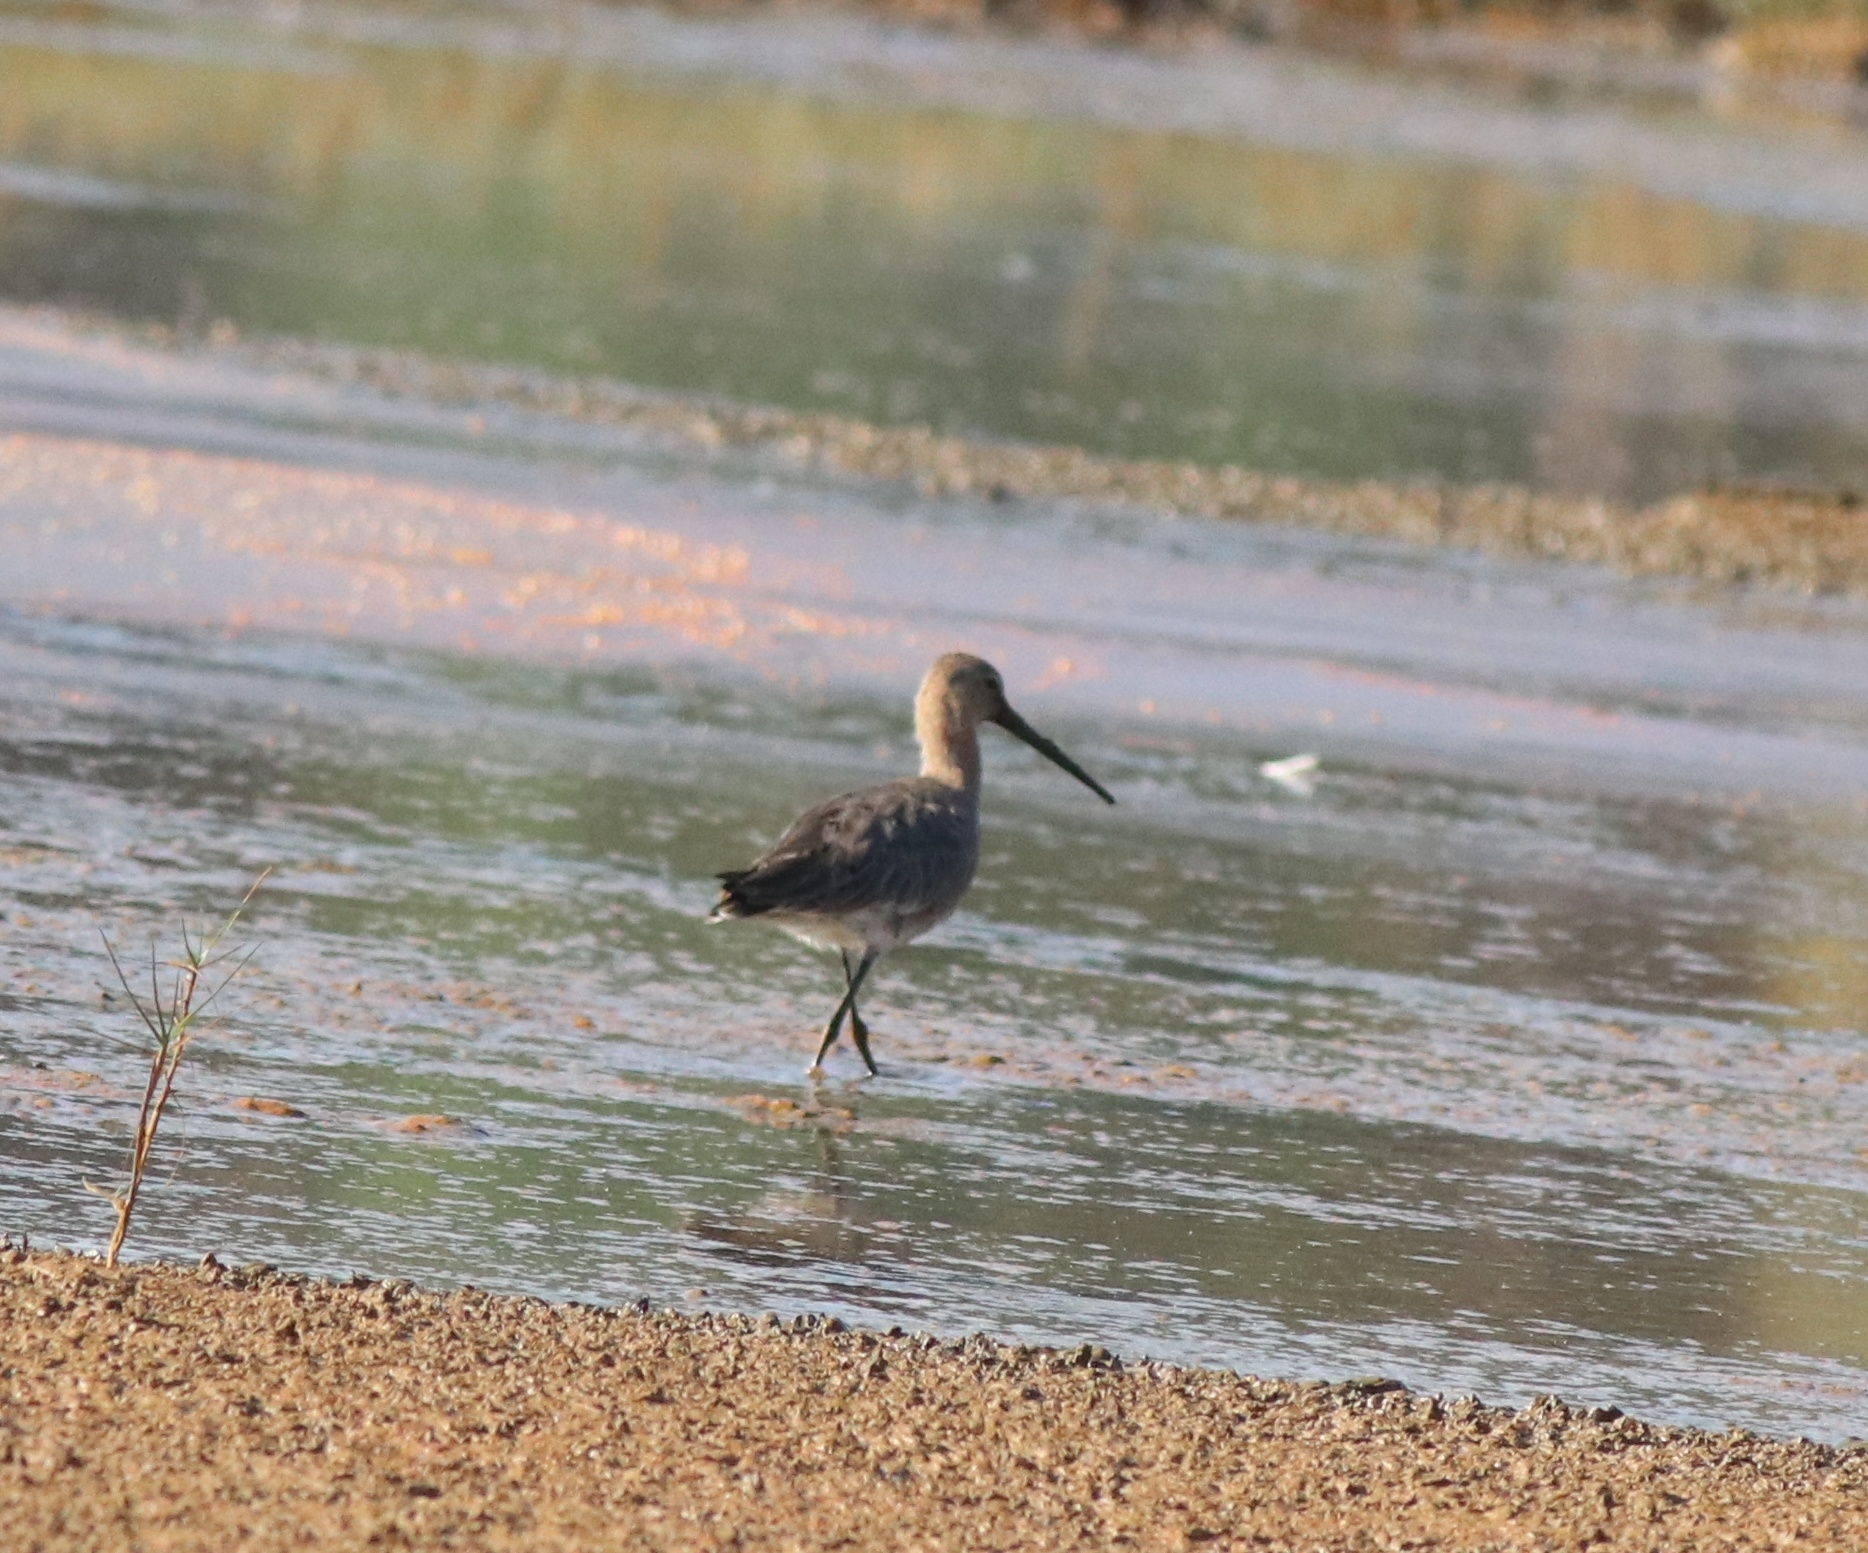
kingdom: Animalia
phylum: Chordata
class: Aves
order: Charadriiformes
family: Scolopacidae
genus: Limosa
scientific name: Limosa limosa
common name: Black-tailed godwit
